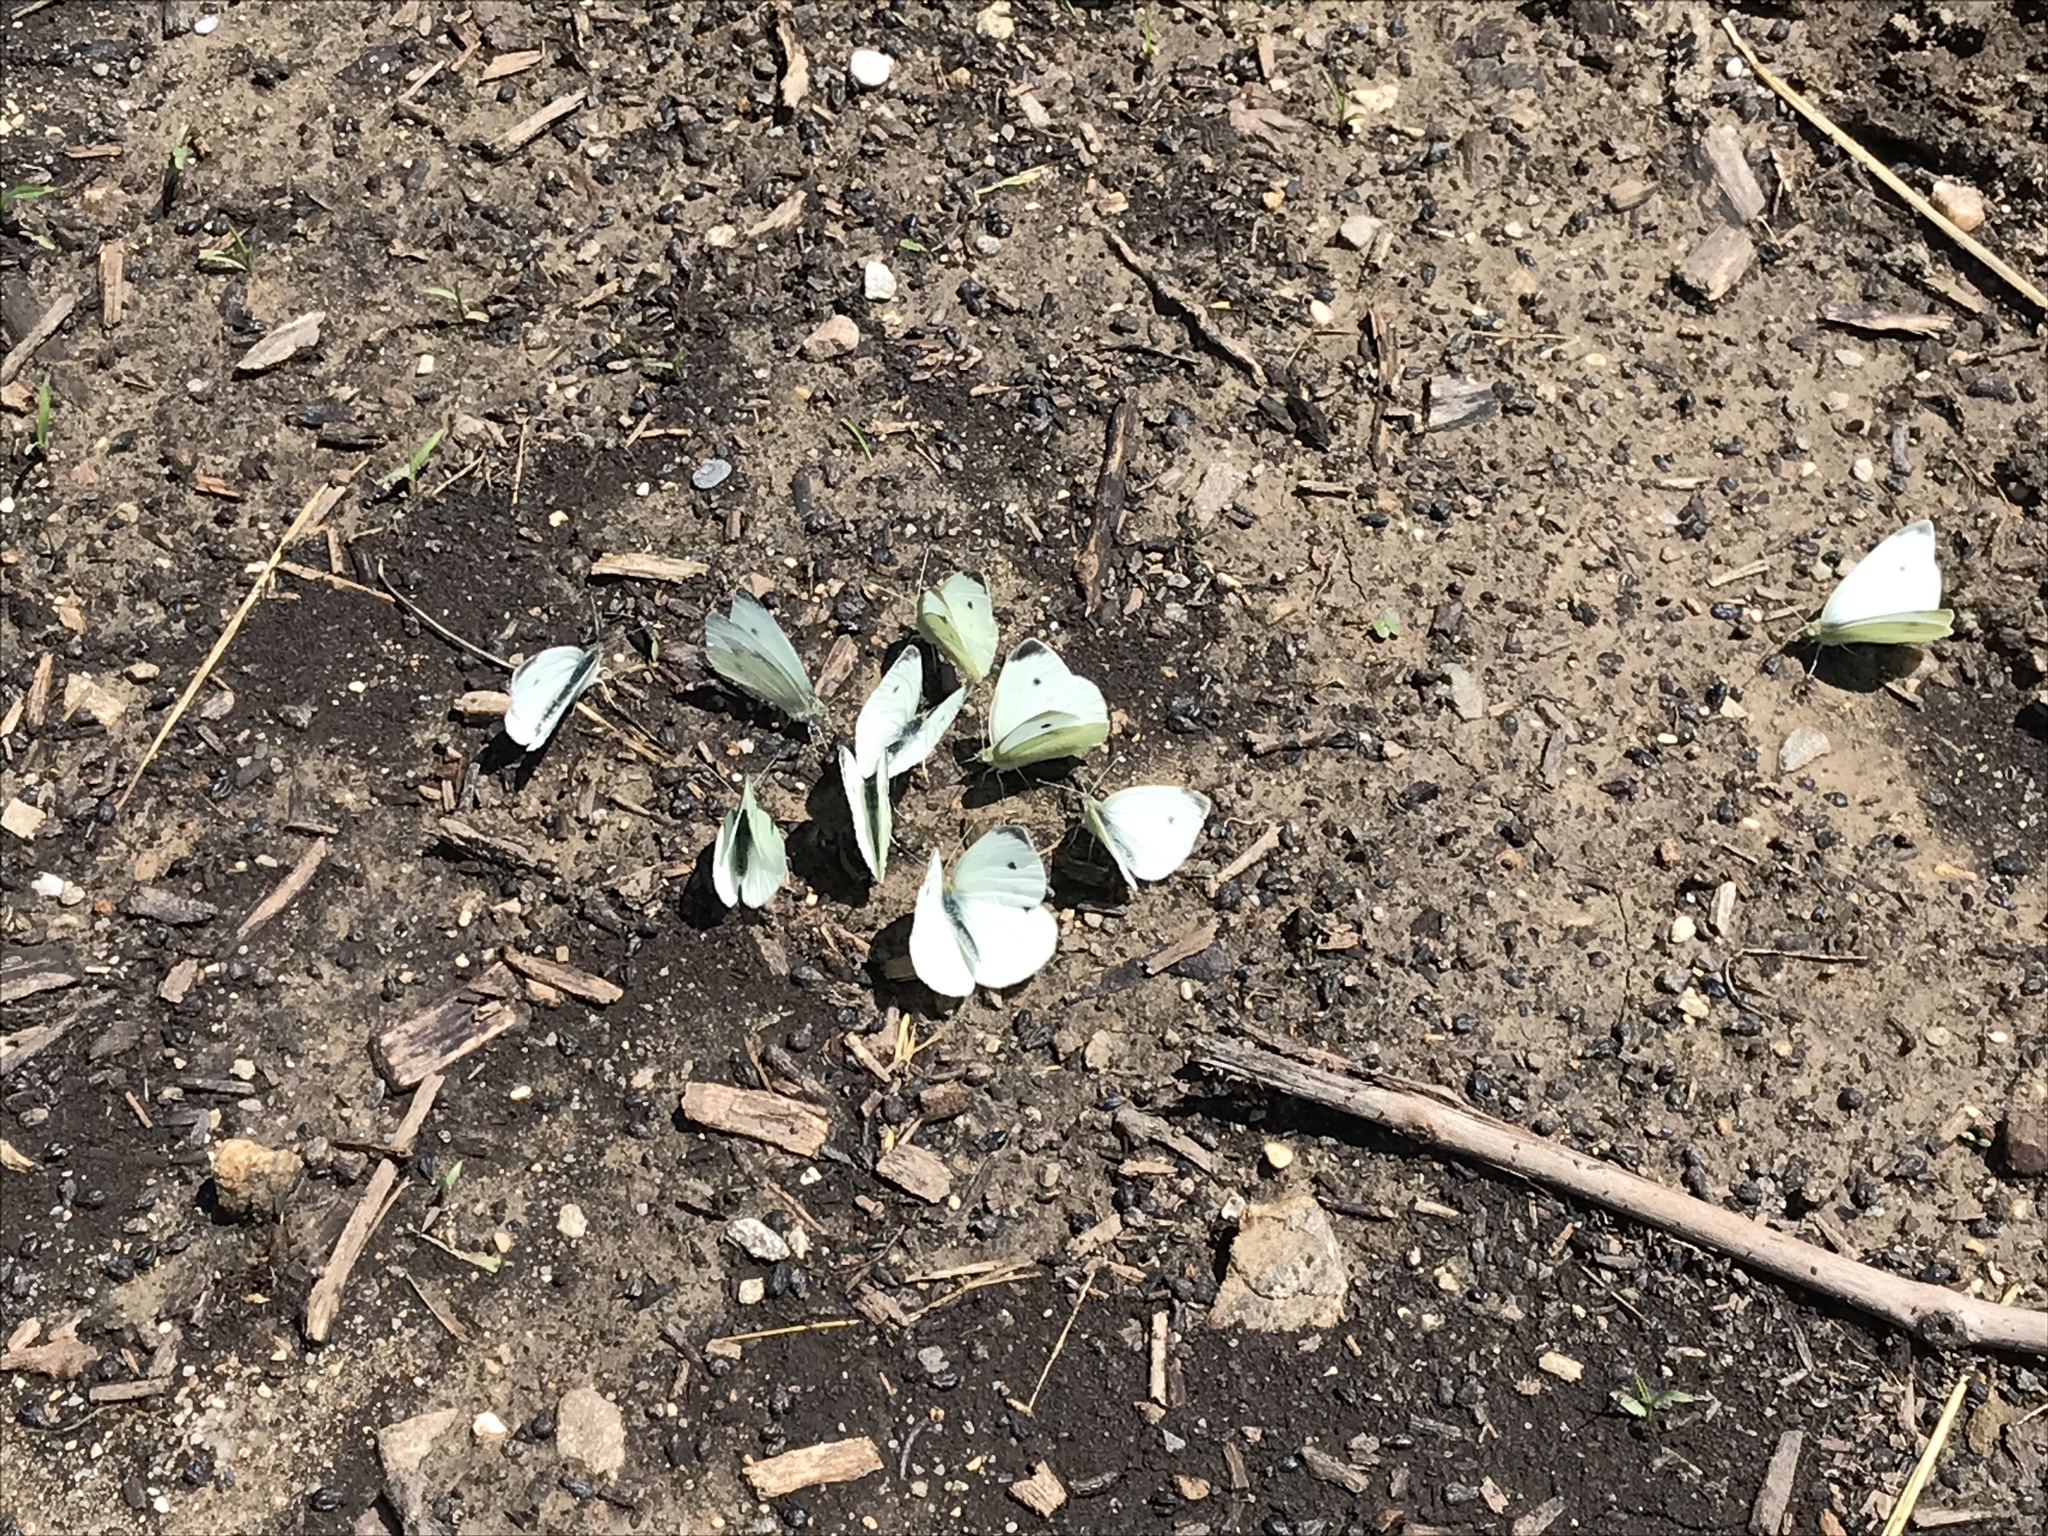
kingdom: Animalia
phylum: Arthropoda
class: Insecta
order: Lepidoptera
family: Pieridae
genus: Pieris
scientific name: Pieris rapae
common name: Small white
